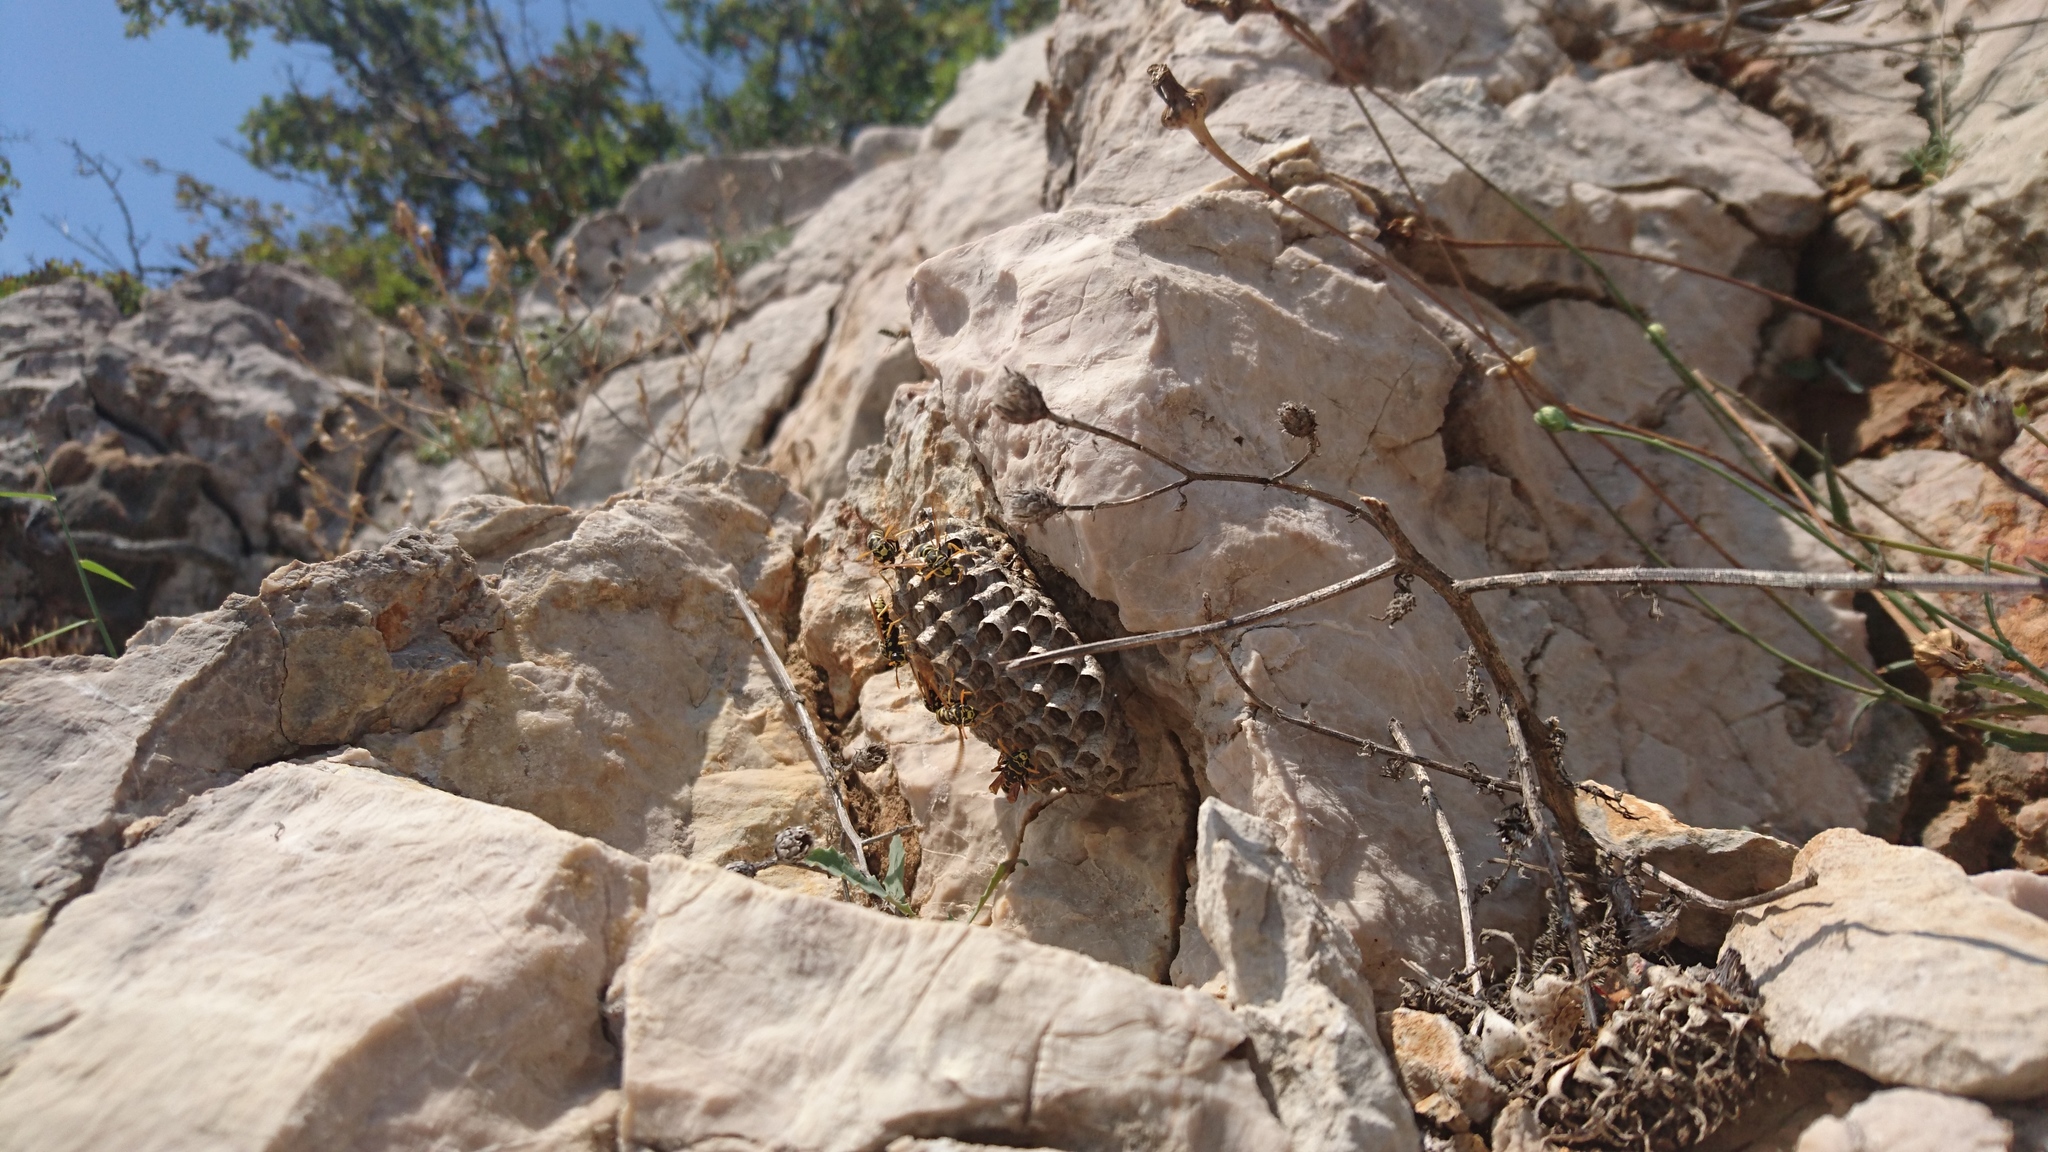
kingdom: Animalia
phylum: Arthropoda
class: Insecta
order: Hymenoptera
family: Eumenidae
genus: Polistes
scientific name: Polistes dominula
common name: Paper wasp
